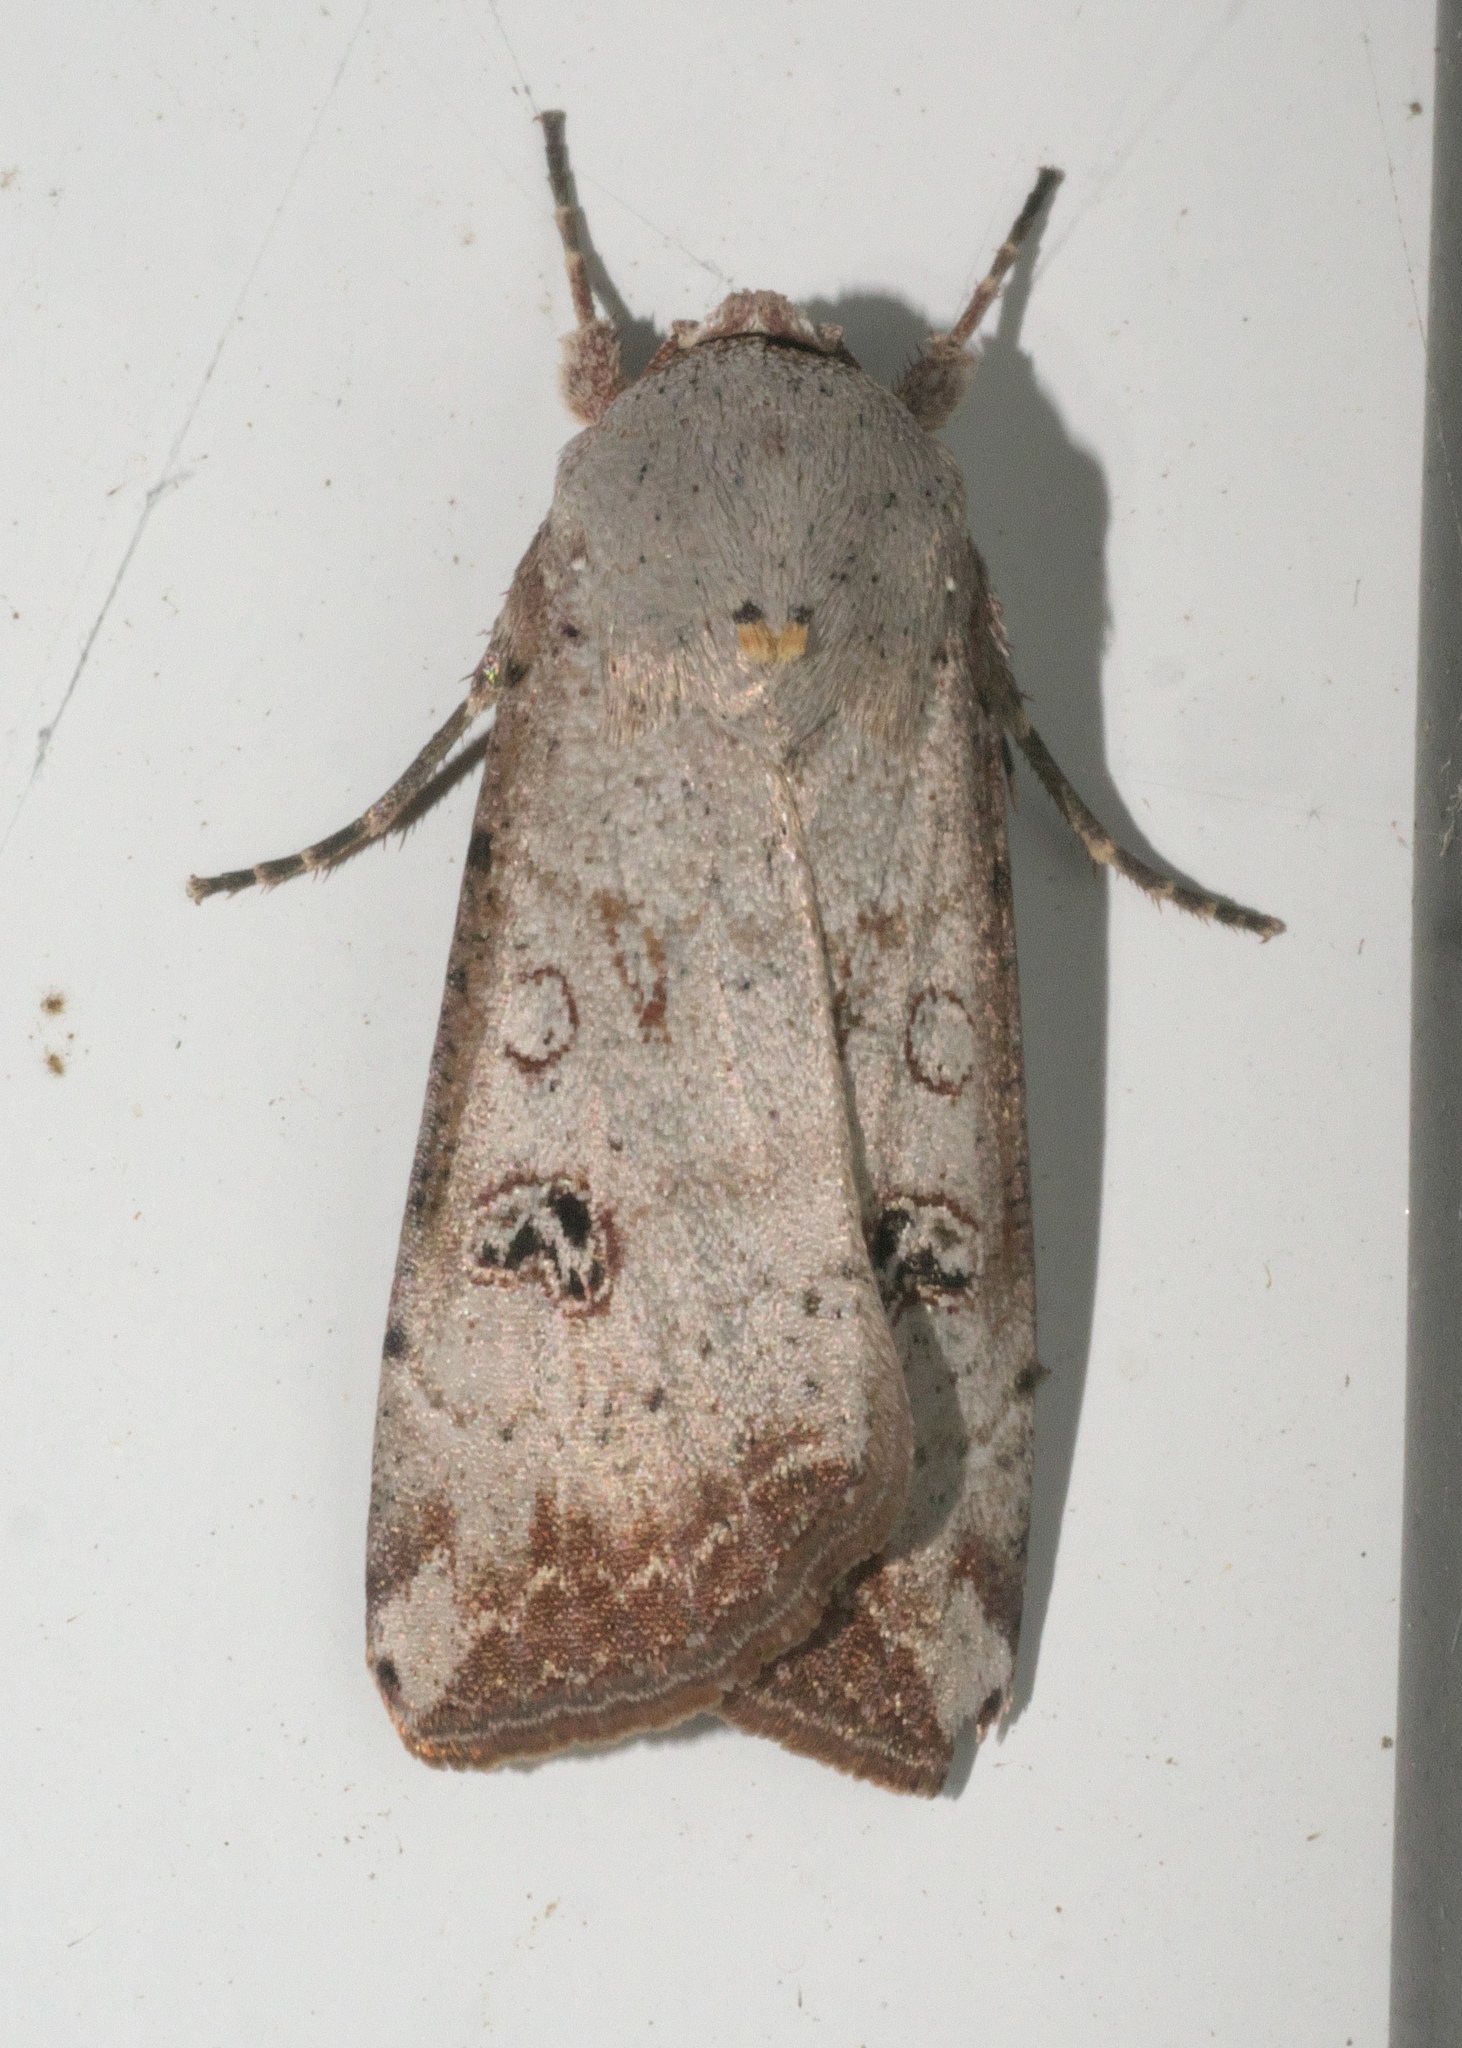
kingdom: Animalia
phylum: Arthropoda
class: Insecta
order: Lepidoptera
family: Noctuidae
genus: Anicla
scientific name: Anicla infecta
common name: Green cutworm
